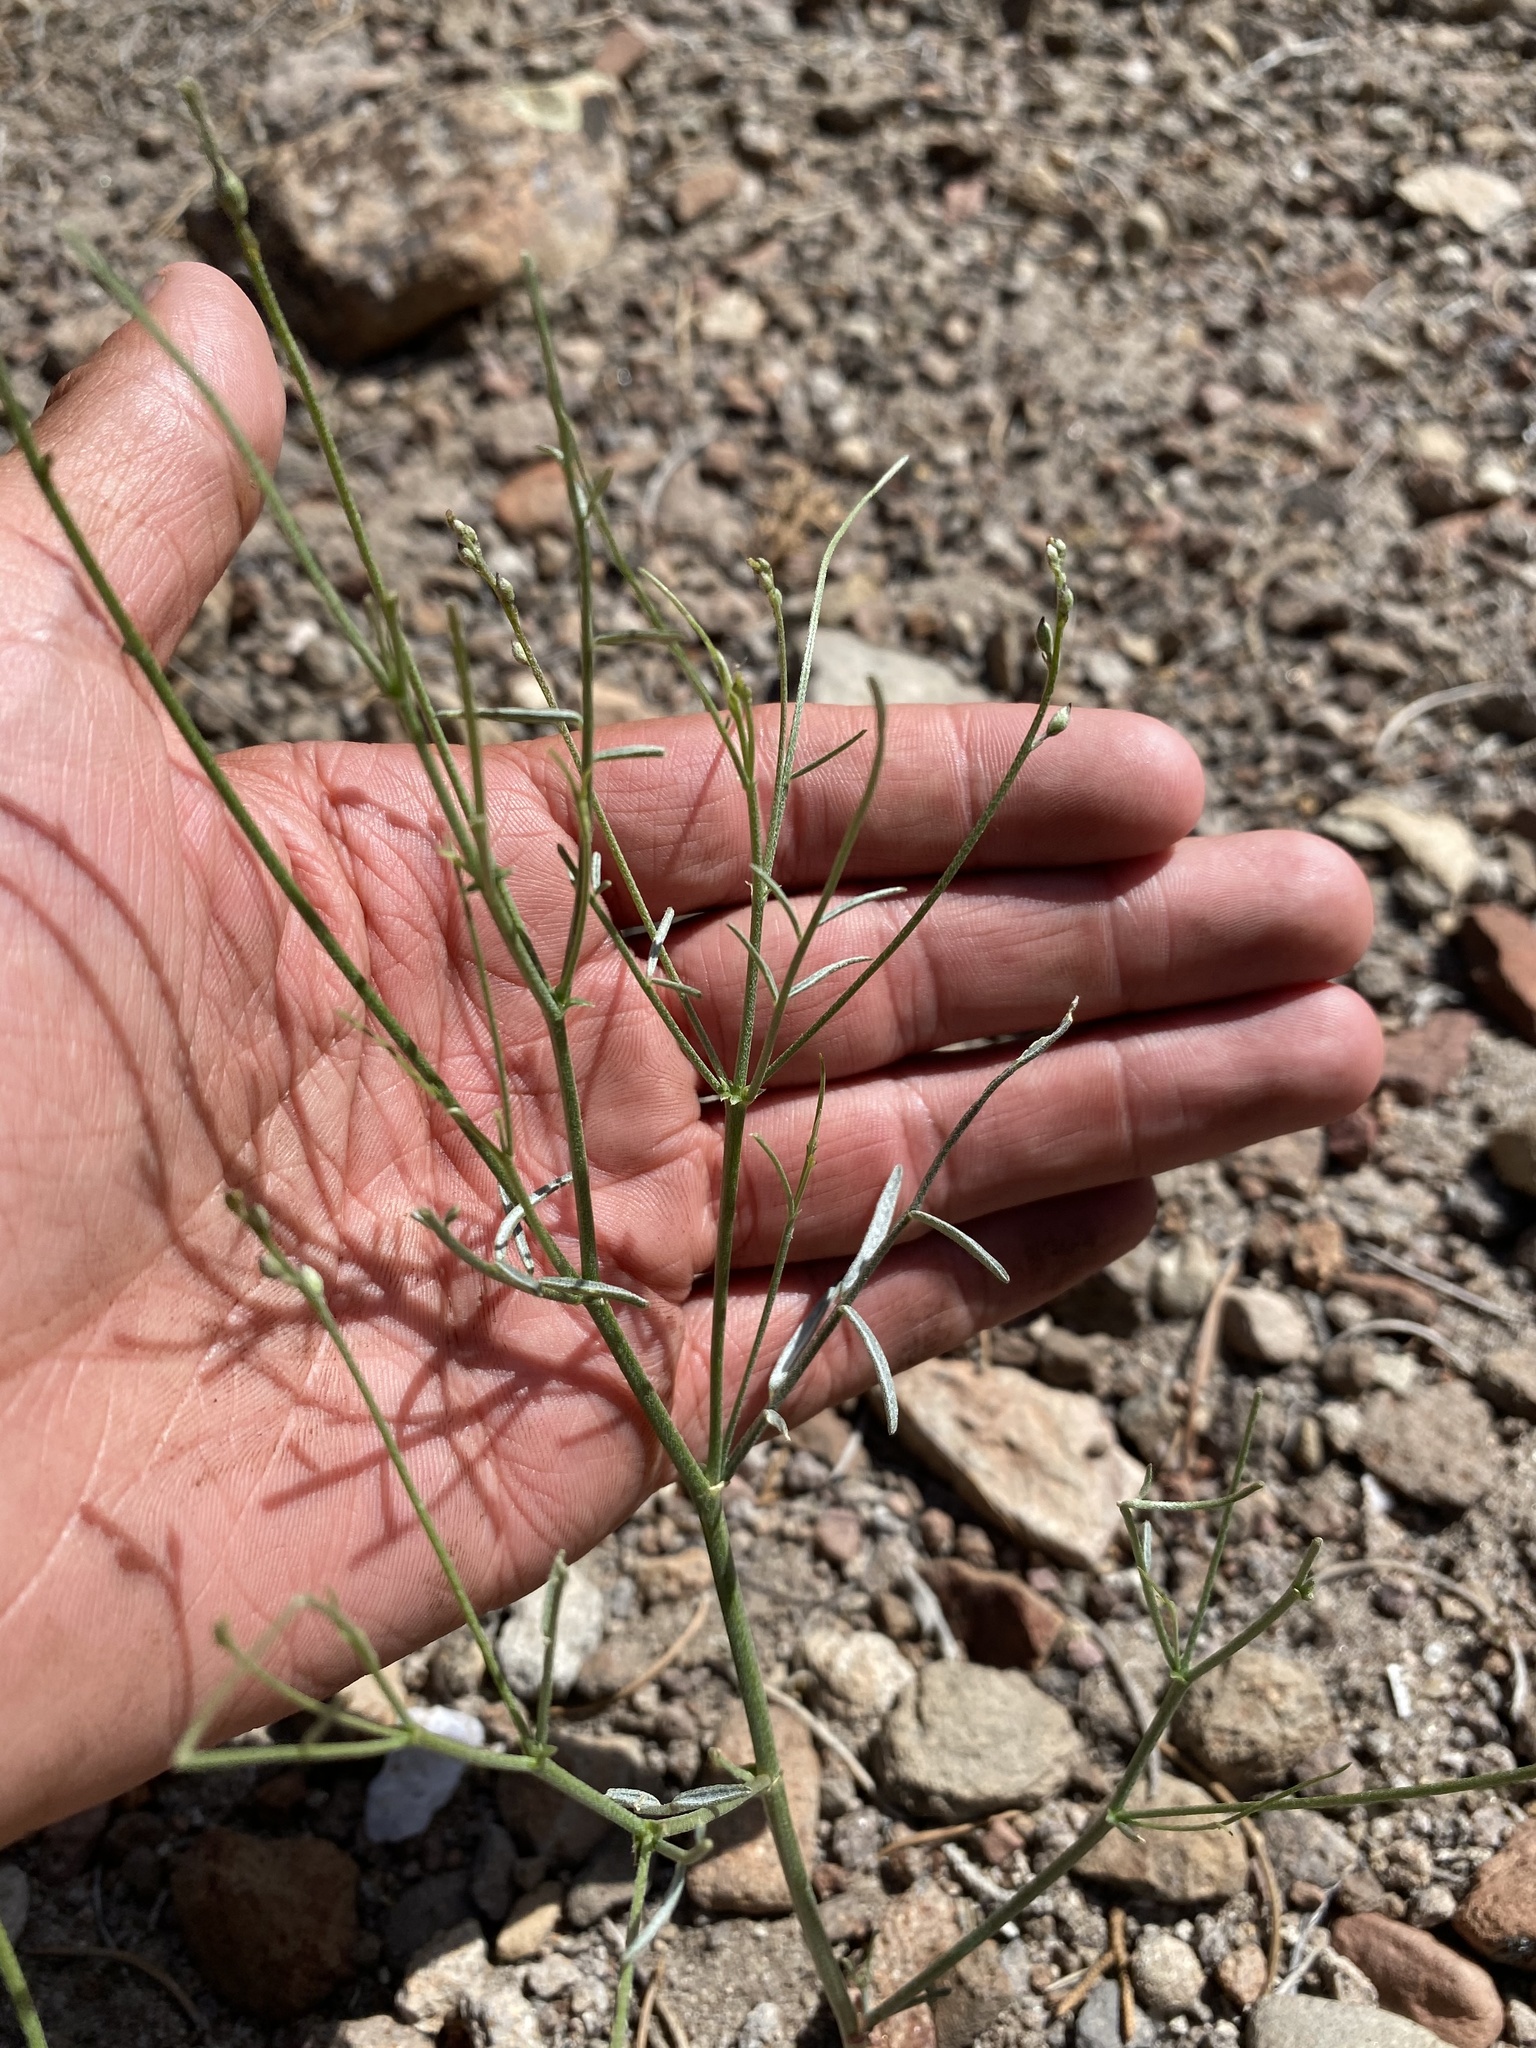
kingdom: Plantae
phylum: Tracheophyta
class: Magnoliopsida
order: Fabales
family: Fabaceae
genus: Astragalus
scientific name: Astragalus convallarius
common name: Lesser rushy milk-vetch
